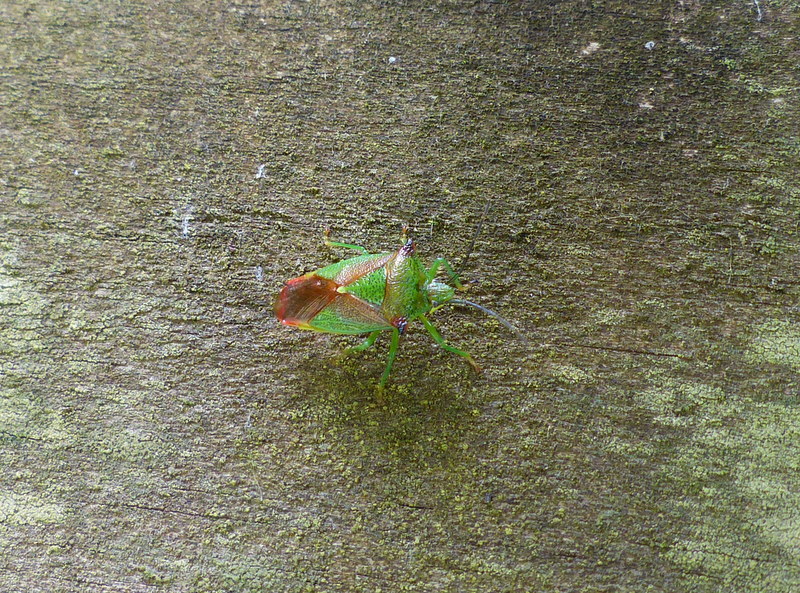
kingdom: Animalia
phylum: Arthropoda
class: Insecta
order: Hemiptera
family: Acanthosomatidae
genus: Acanthosoma
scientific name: Acanthosoma haemorrhoidale
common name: Hawthorn shieldbug
